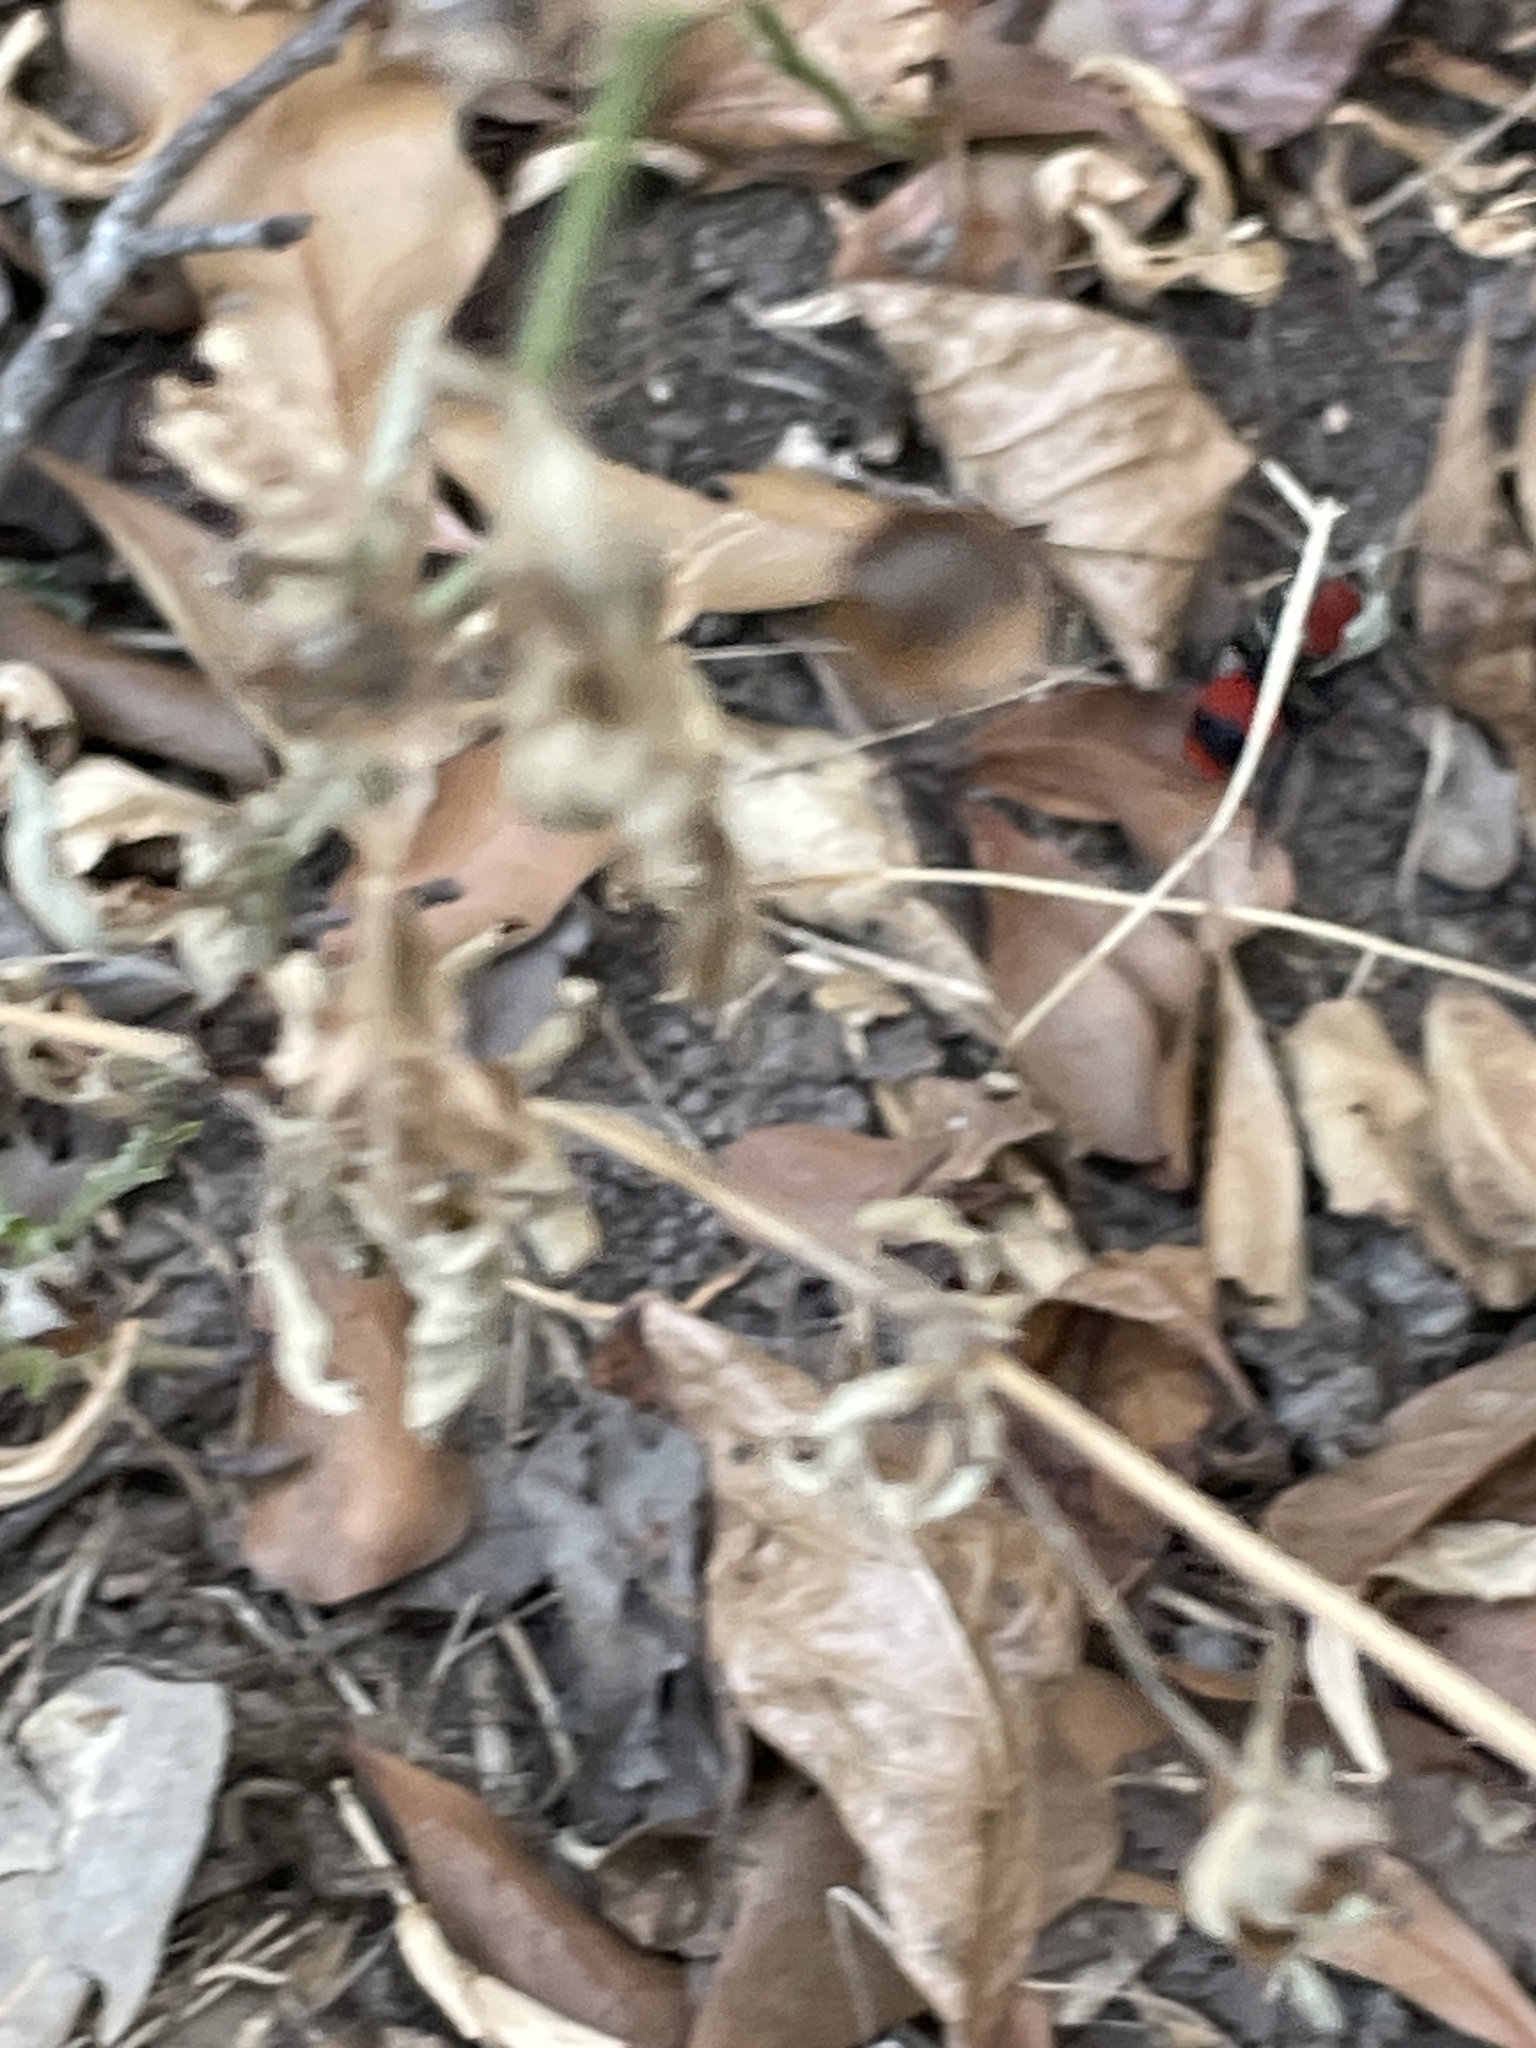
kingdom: Animalia
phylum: Arthropoda
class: Insecta
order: Hymenoptera
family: Mutillidae
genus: Dasymutilla
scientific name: Dasymutilla occidentalis
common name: Common eastern velvet ant
